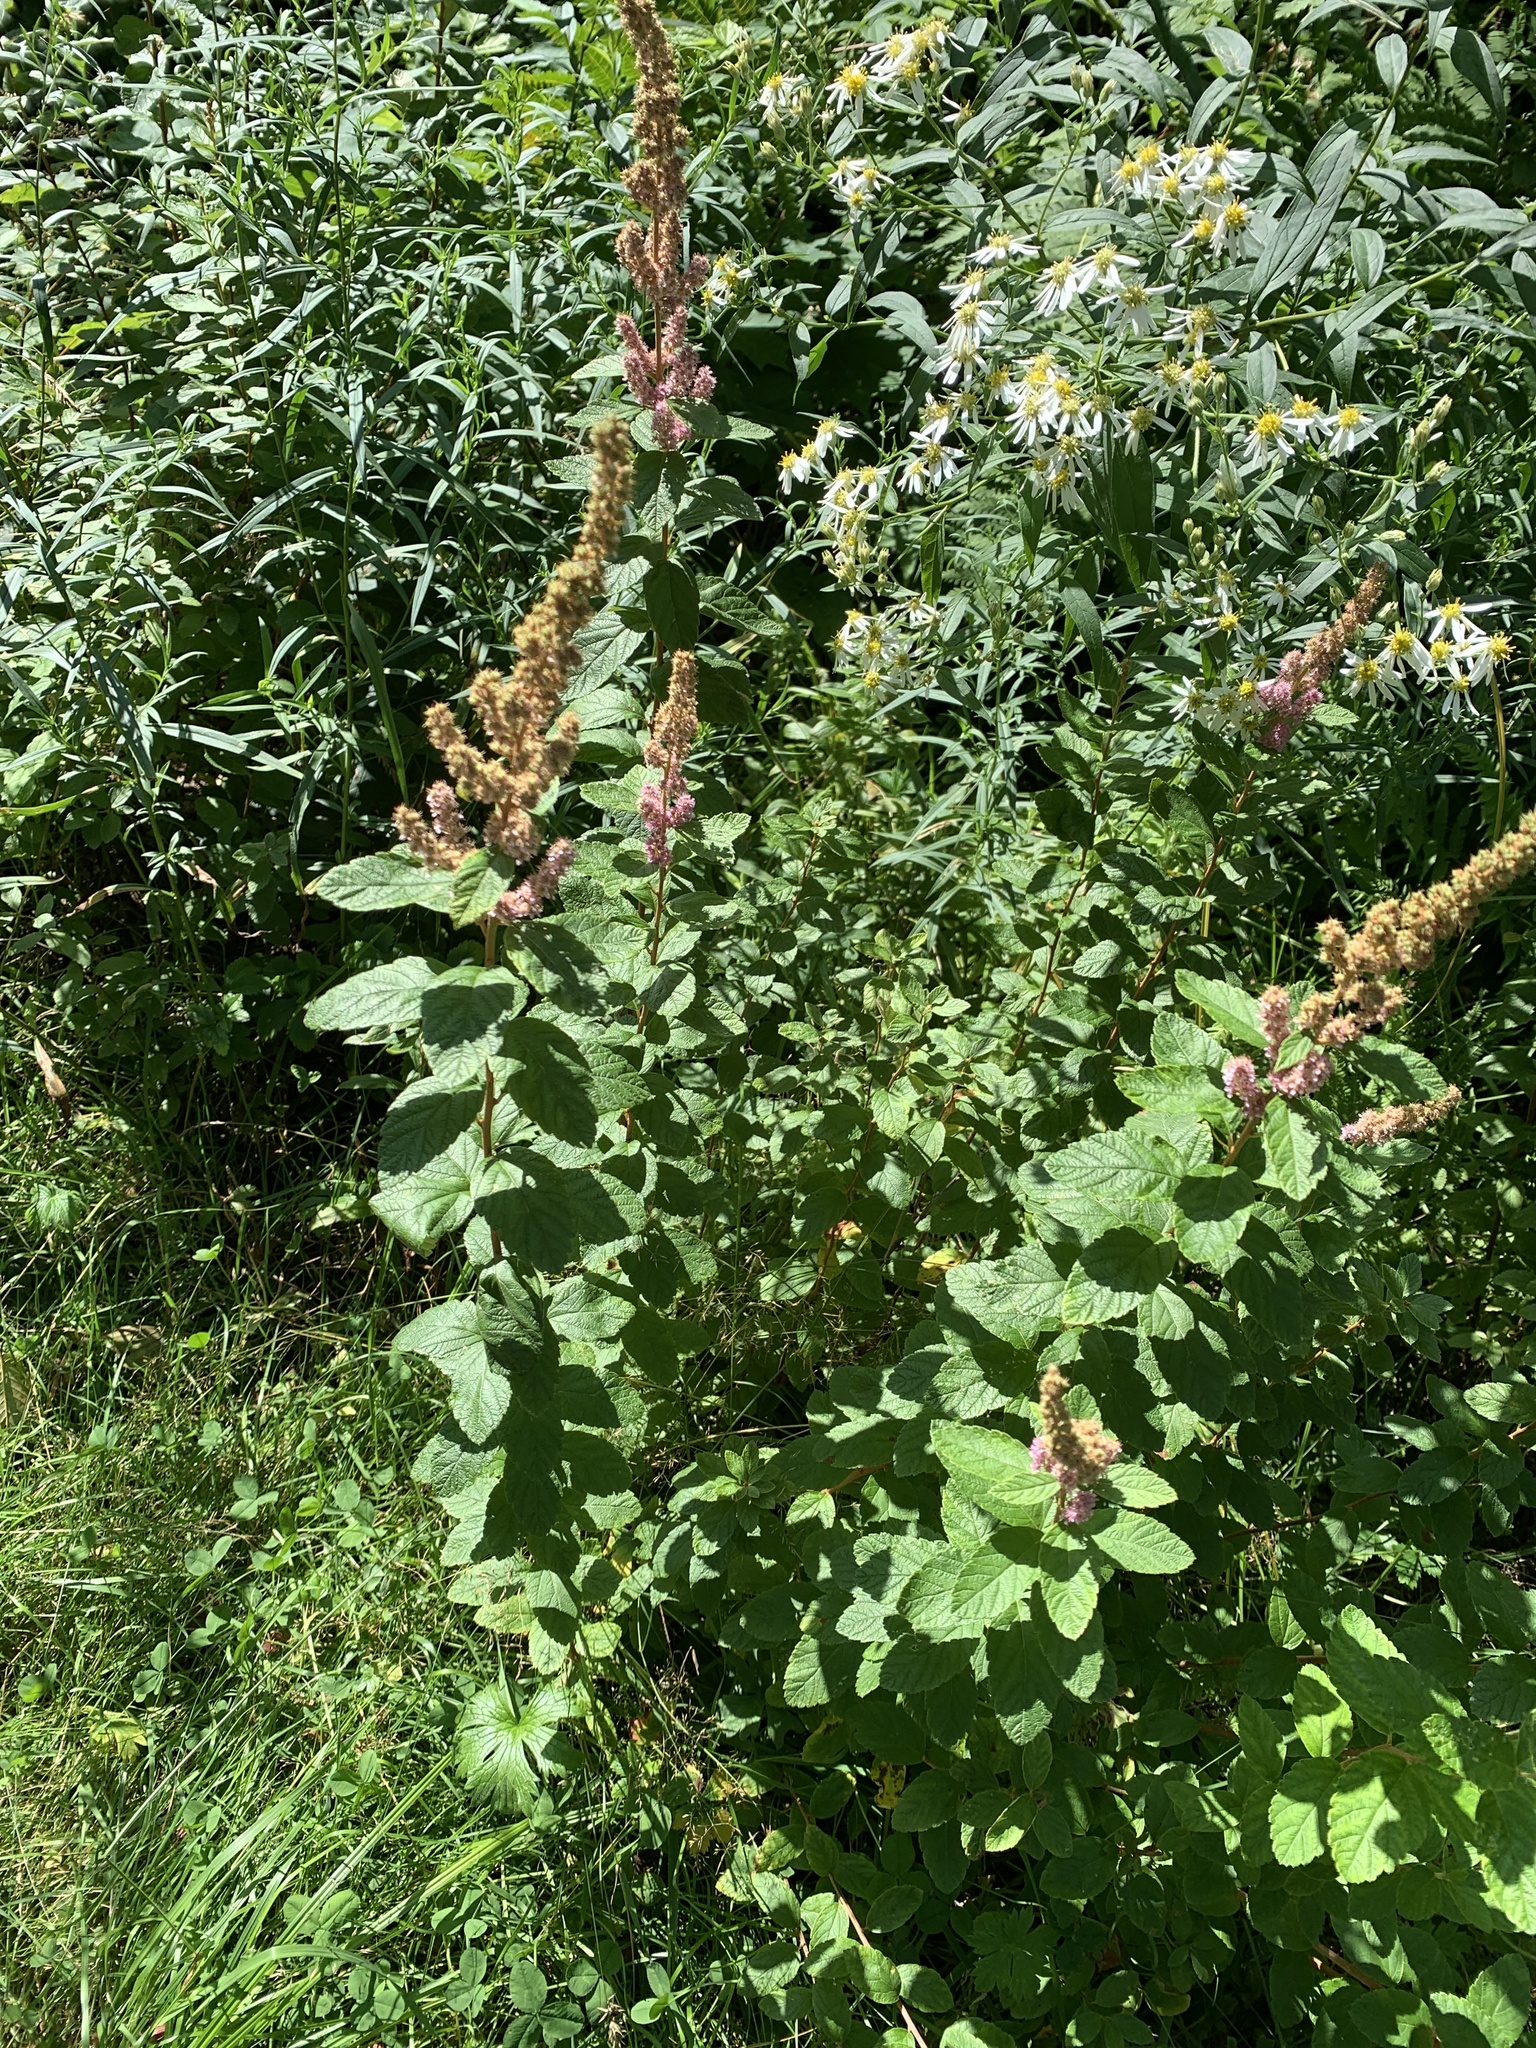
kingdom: Plantae
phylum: Tracheophyta
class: Magnoliopsida
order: Rosales
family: Rosaceae
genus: Spiraea
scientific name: Spiraea tomentosa
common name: Hardhack
